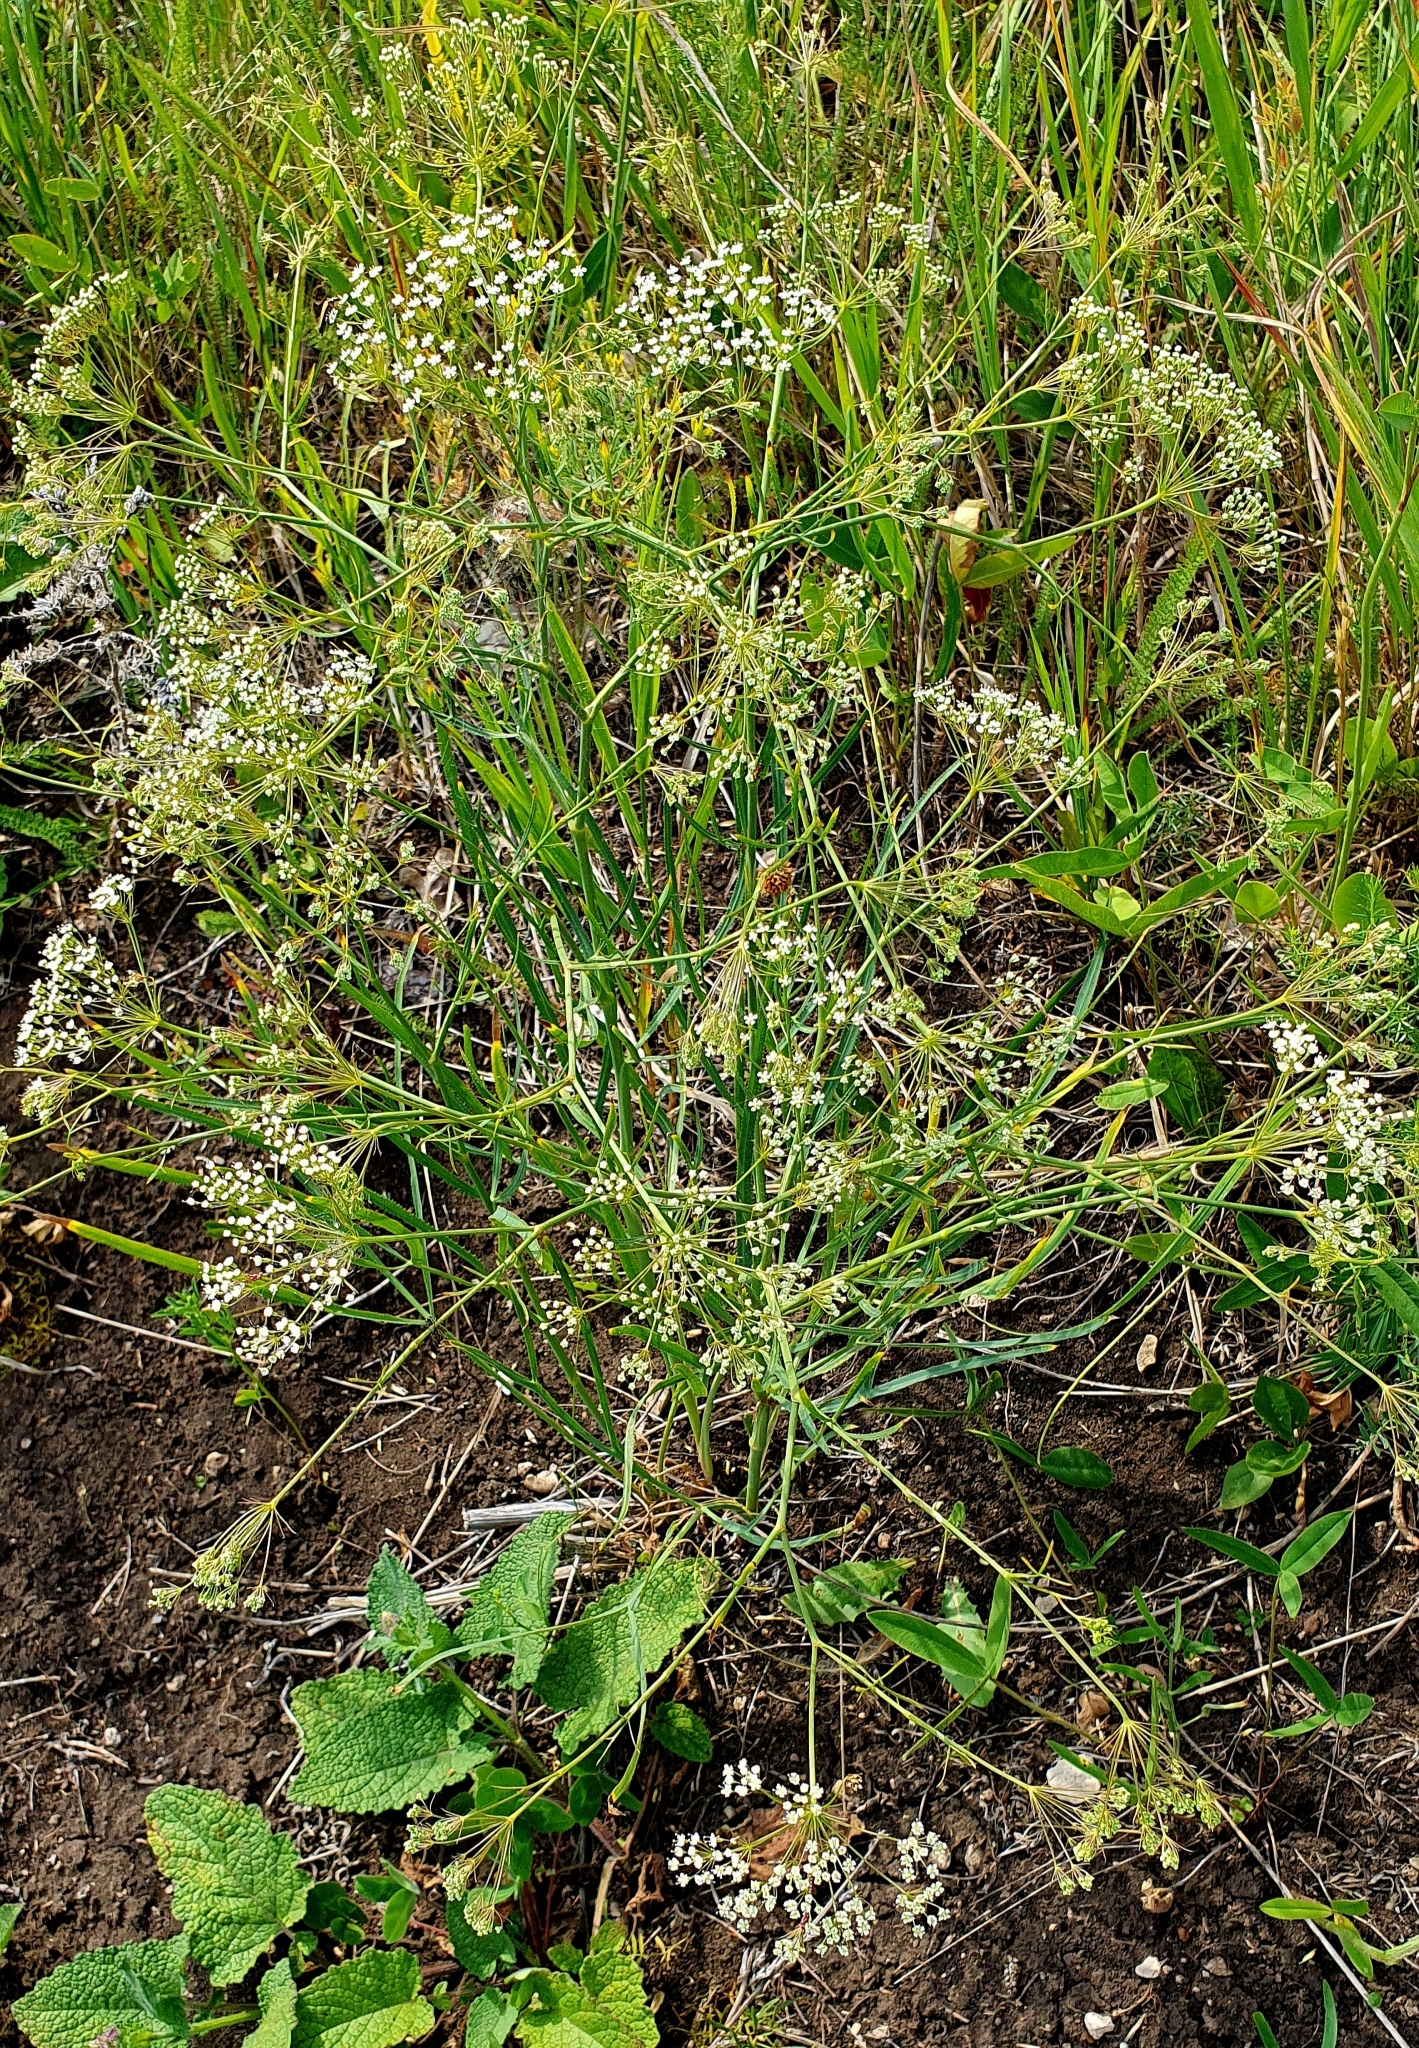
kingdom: Plantae
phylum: Tracheophyta
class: Magnoliopsida
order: Apiales
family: Apiaceae
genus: Falcaria
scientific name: Falcaria vulgaris
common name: Longleaf
